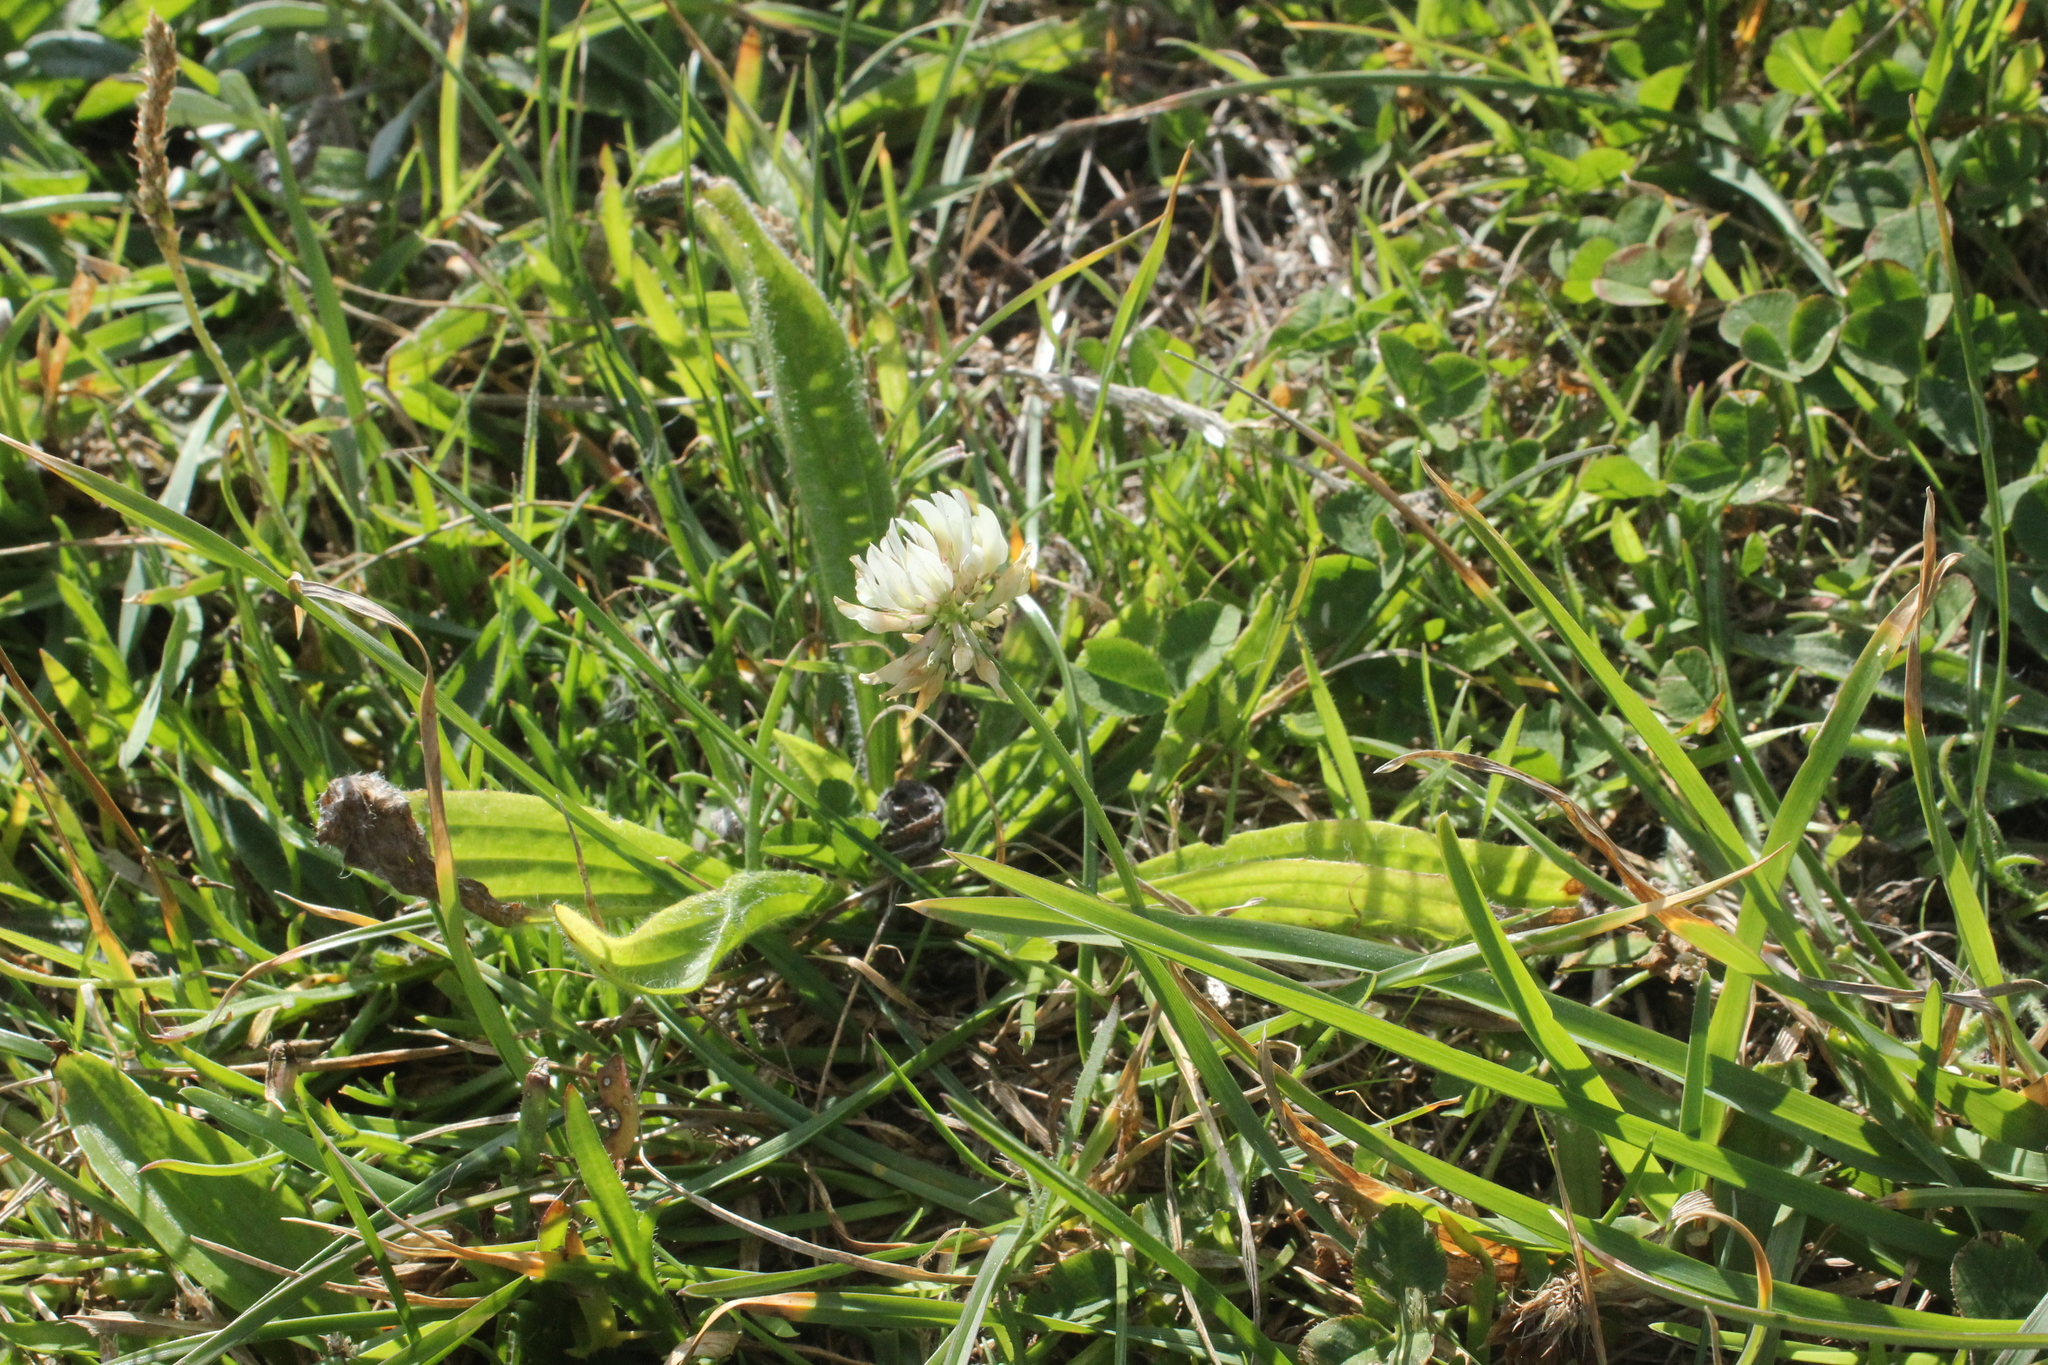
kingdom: Plantae
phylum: Tracheophyta
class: Magnoliopsida
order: Fabales
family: Fabaceae
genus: Trifolium
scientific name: Trifolium repens
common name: White clover
